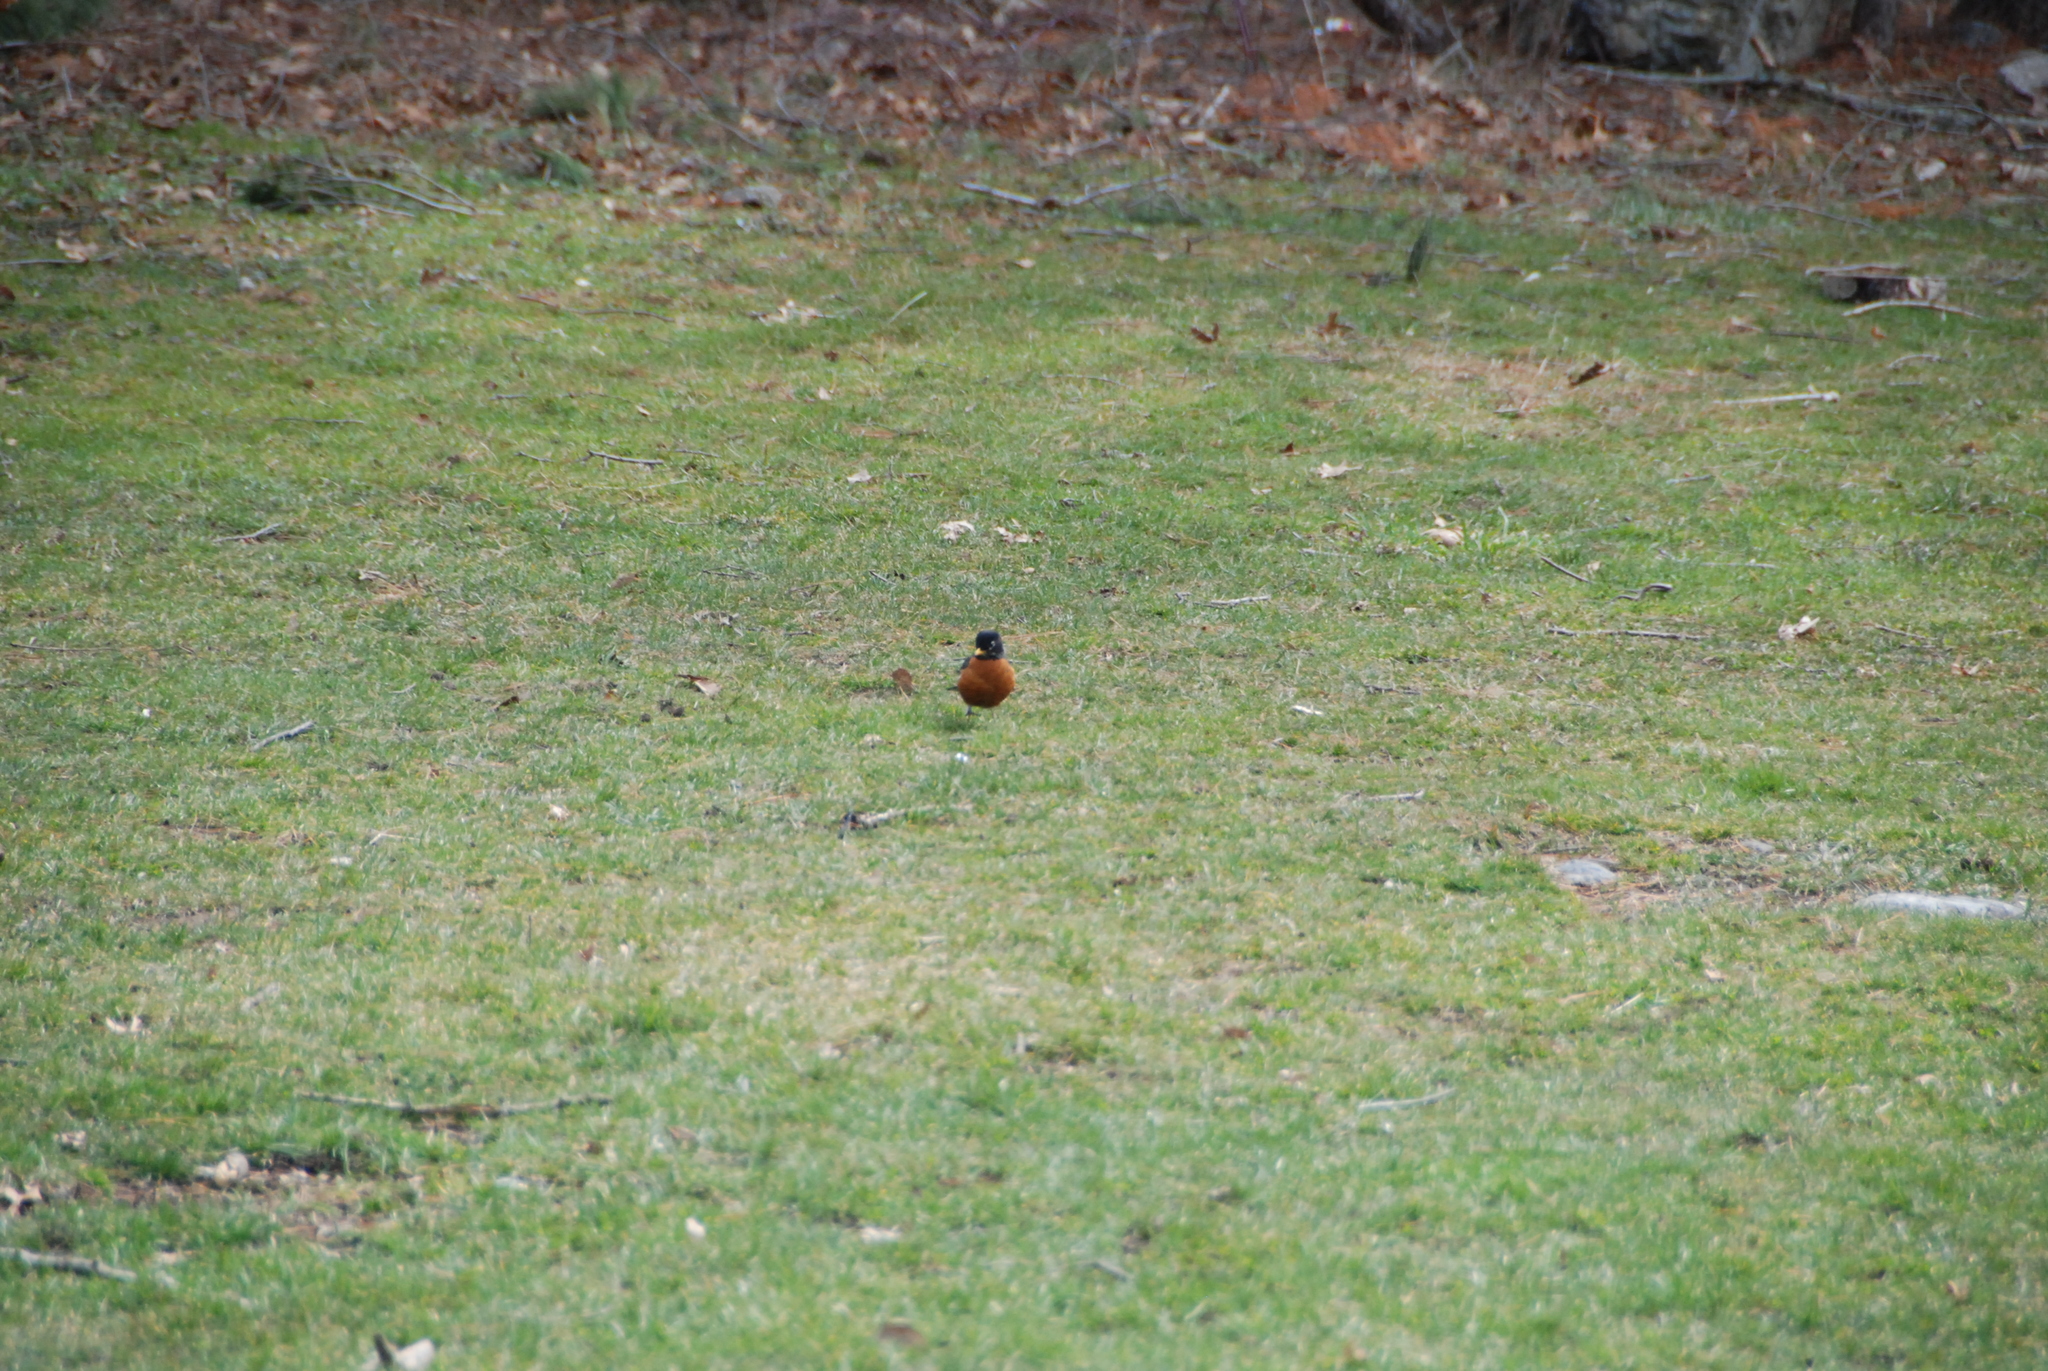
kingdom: Animalia
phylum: Chordata
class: Aves
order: Passeriformes
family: Turdidae
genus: Turdus
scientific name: Turdus migratorius
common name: American robin
